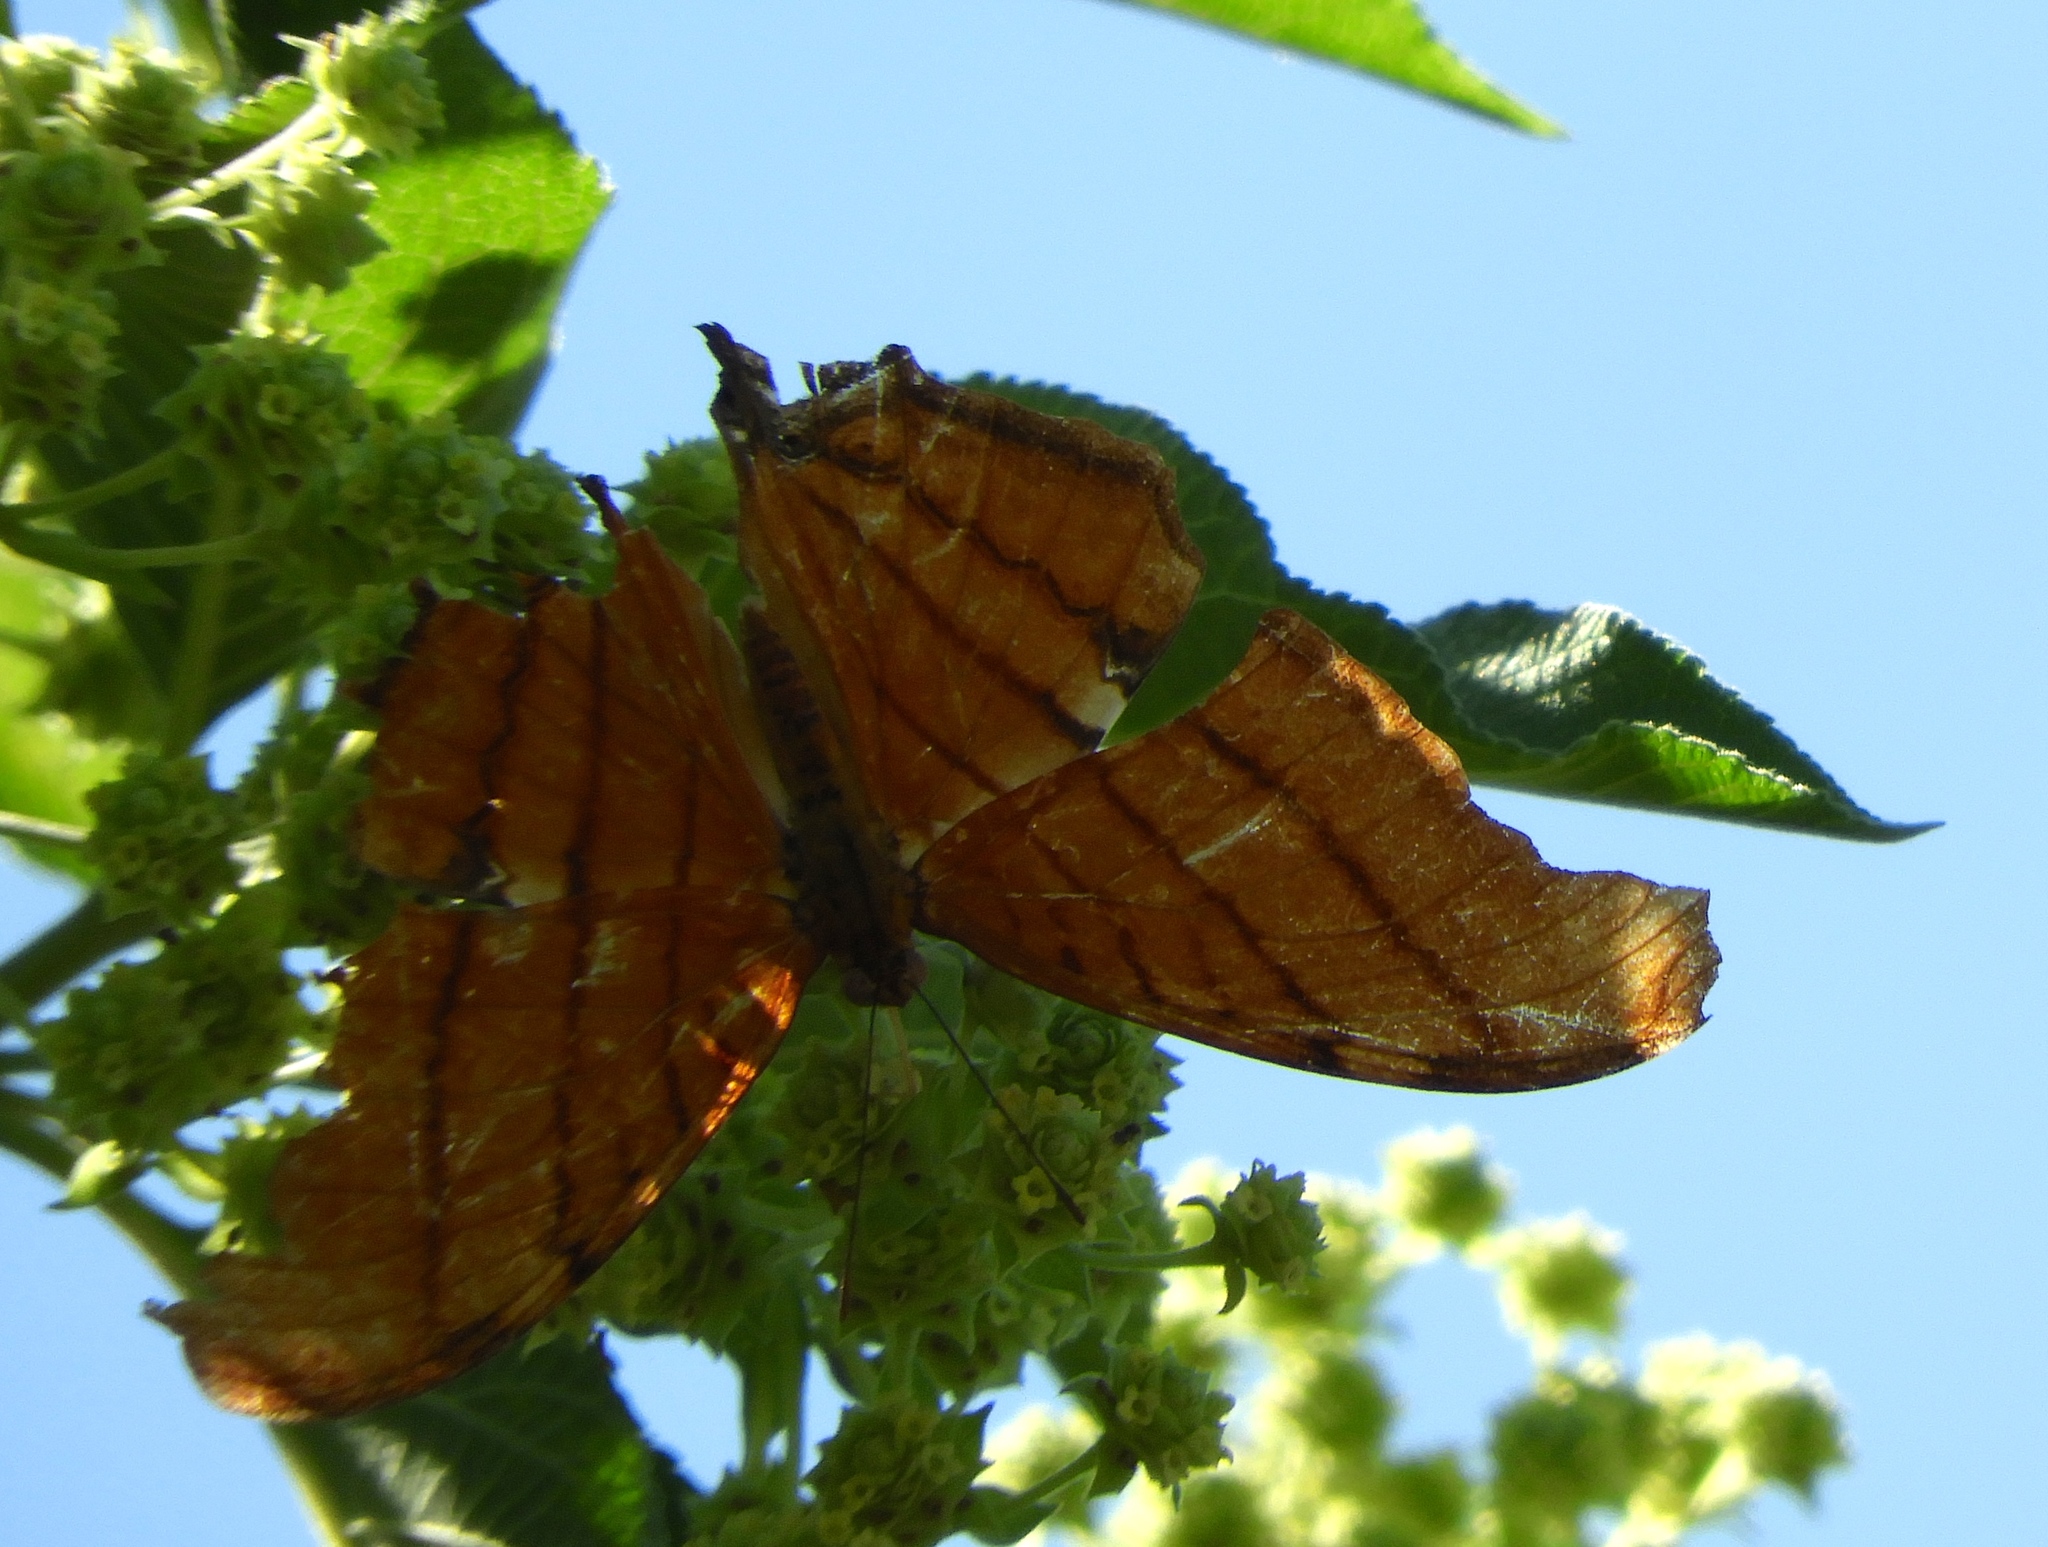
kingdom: Animalia
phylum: Arthropoda
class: Insecta
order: Lepidoptera
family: Nymphalidae
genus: Marpesia
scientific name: Marpesia petreus
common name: Red dagger wing
